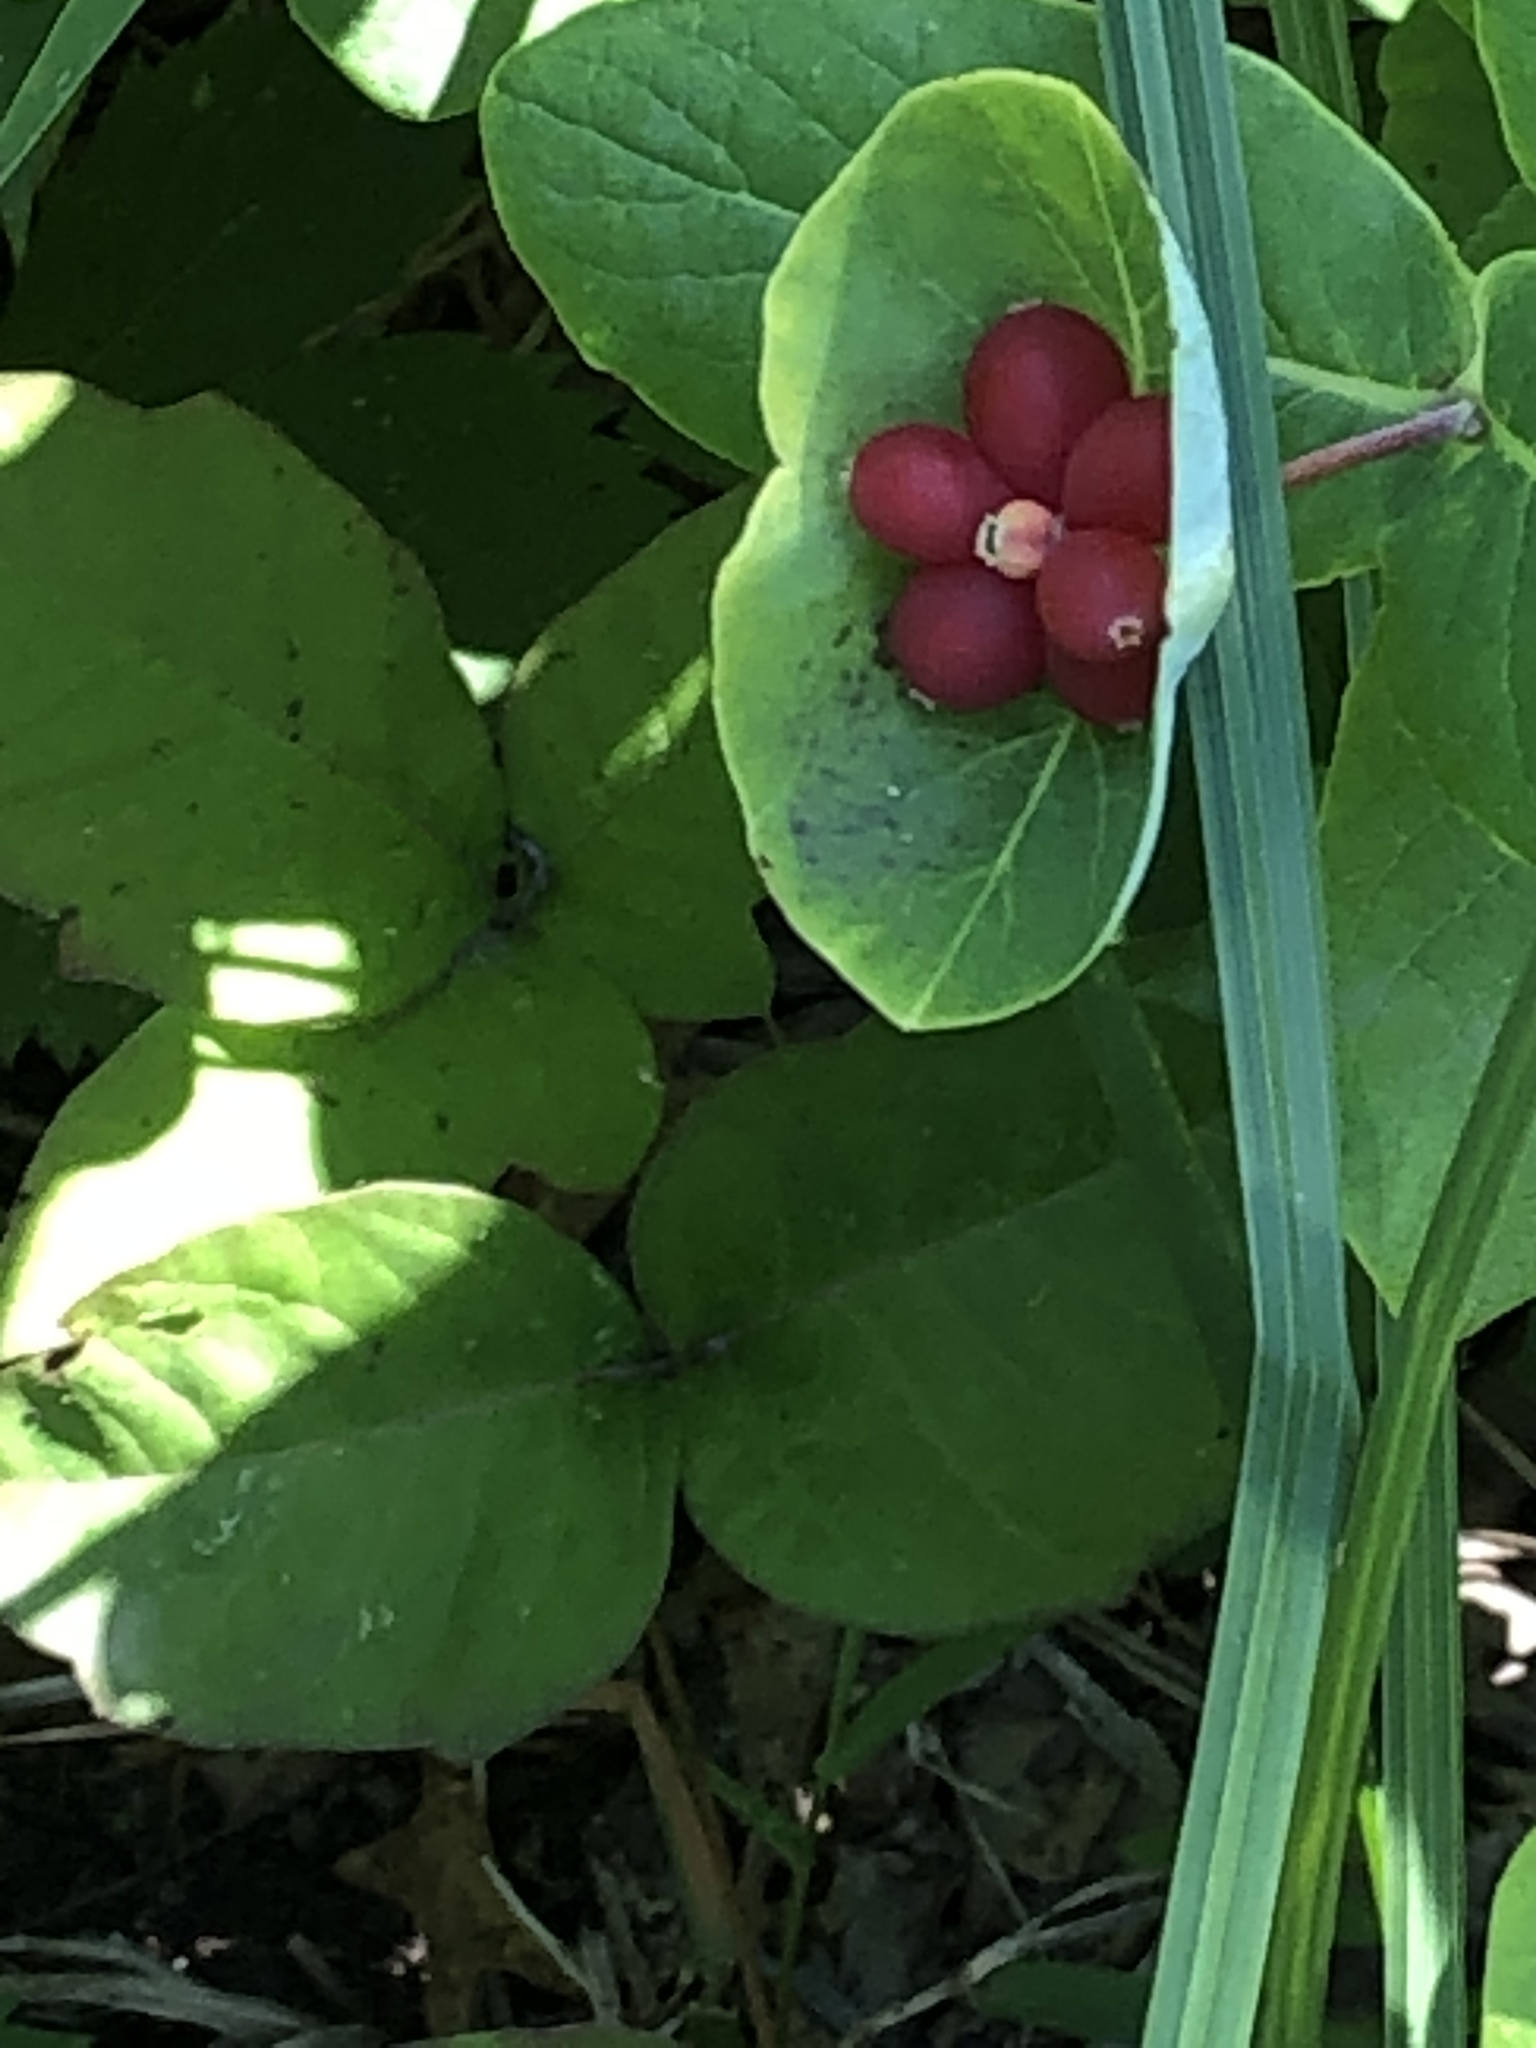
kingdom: Plantae
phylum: Tracheophyta
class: Magnoliopsida
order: Dipsacales
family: Caprifoliaceae
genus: Lonicera
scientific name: Lonicera dioica
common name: Limber honeysuckle
